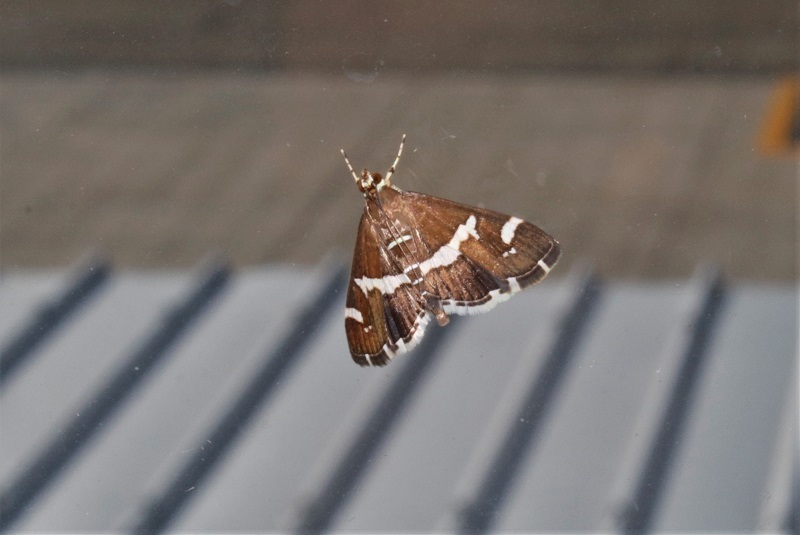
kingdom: Animalia
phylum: Arthropoda
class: Insecta
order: Lepidoptera
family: Crambidae
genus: Spoladea
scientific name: Spoladea recurvalis
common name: Beet webworm moth
